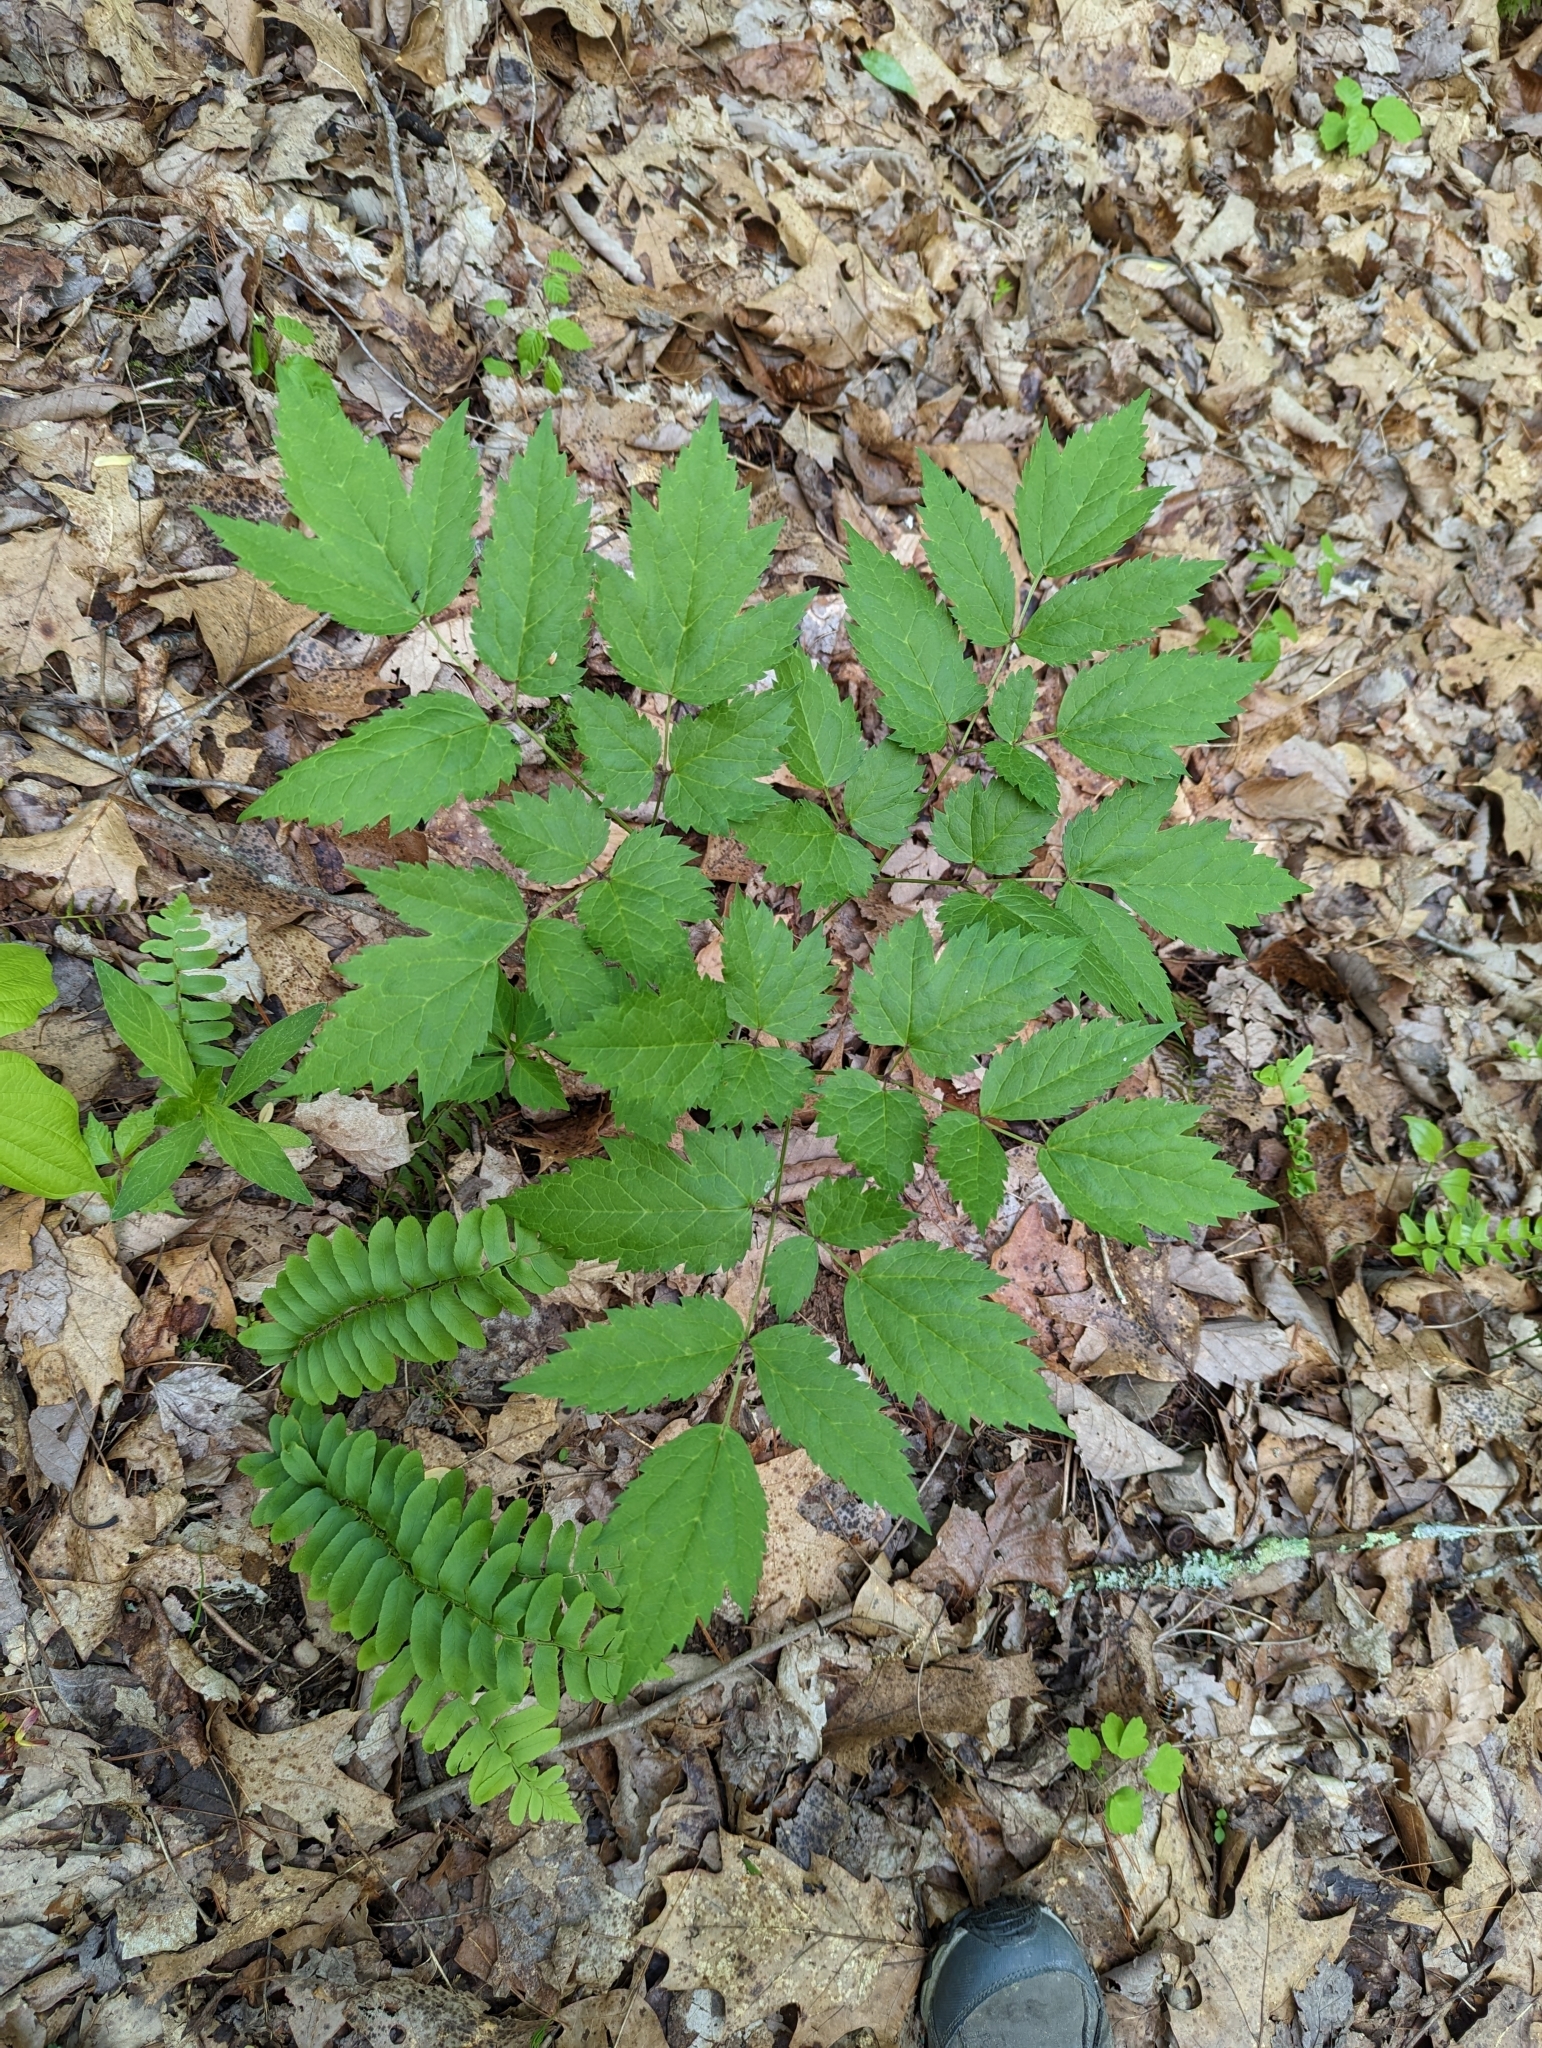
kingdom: Plantae
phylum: Tracheophyta
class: Magnoliopsida
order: Ranunculales
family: Ranunculaceae
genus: Actaea
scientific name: Actaea racemosa
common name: Black cohosh
